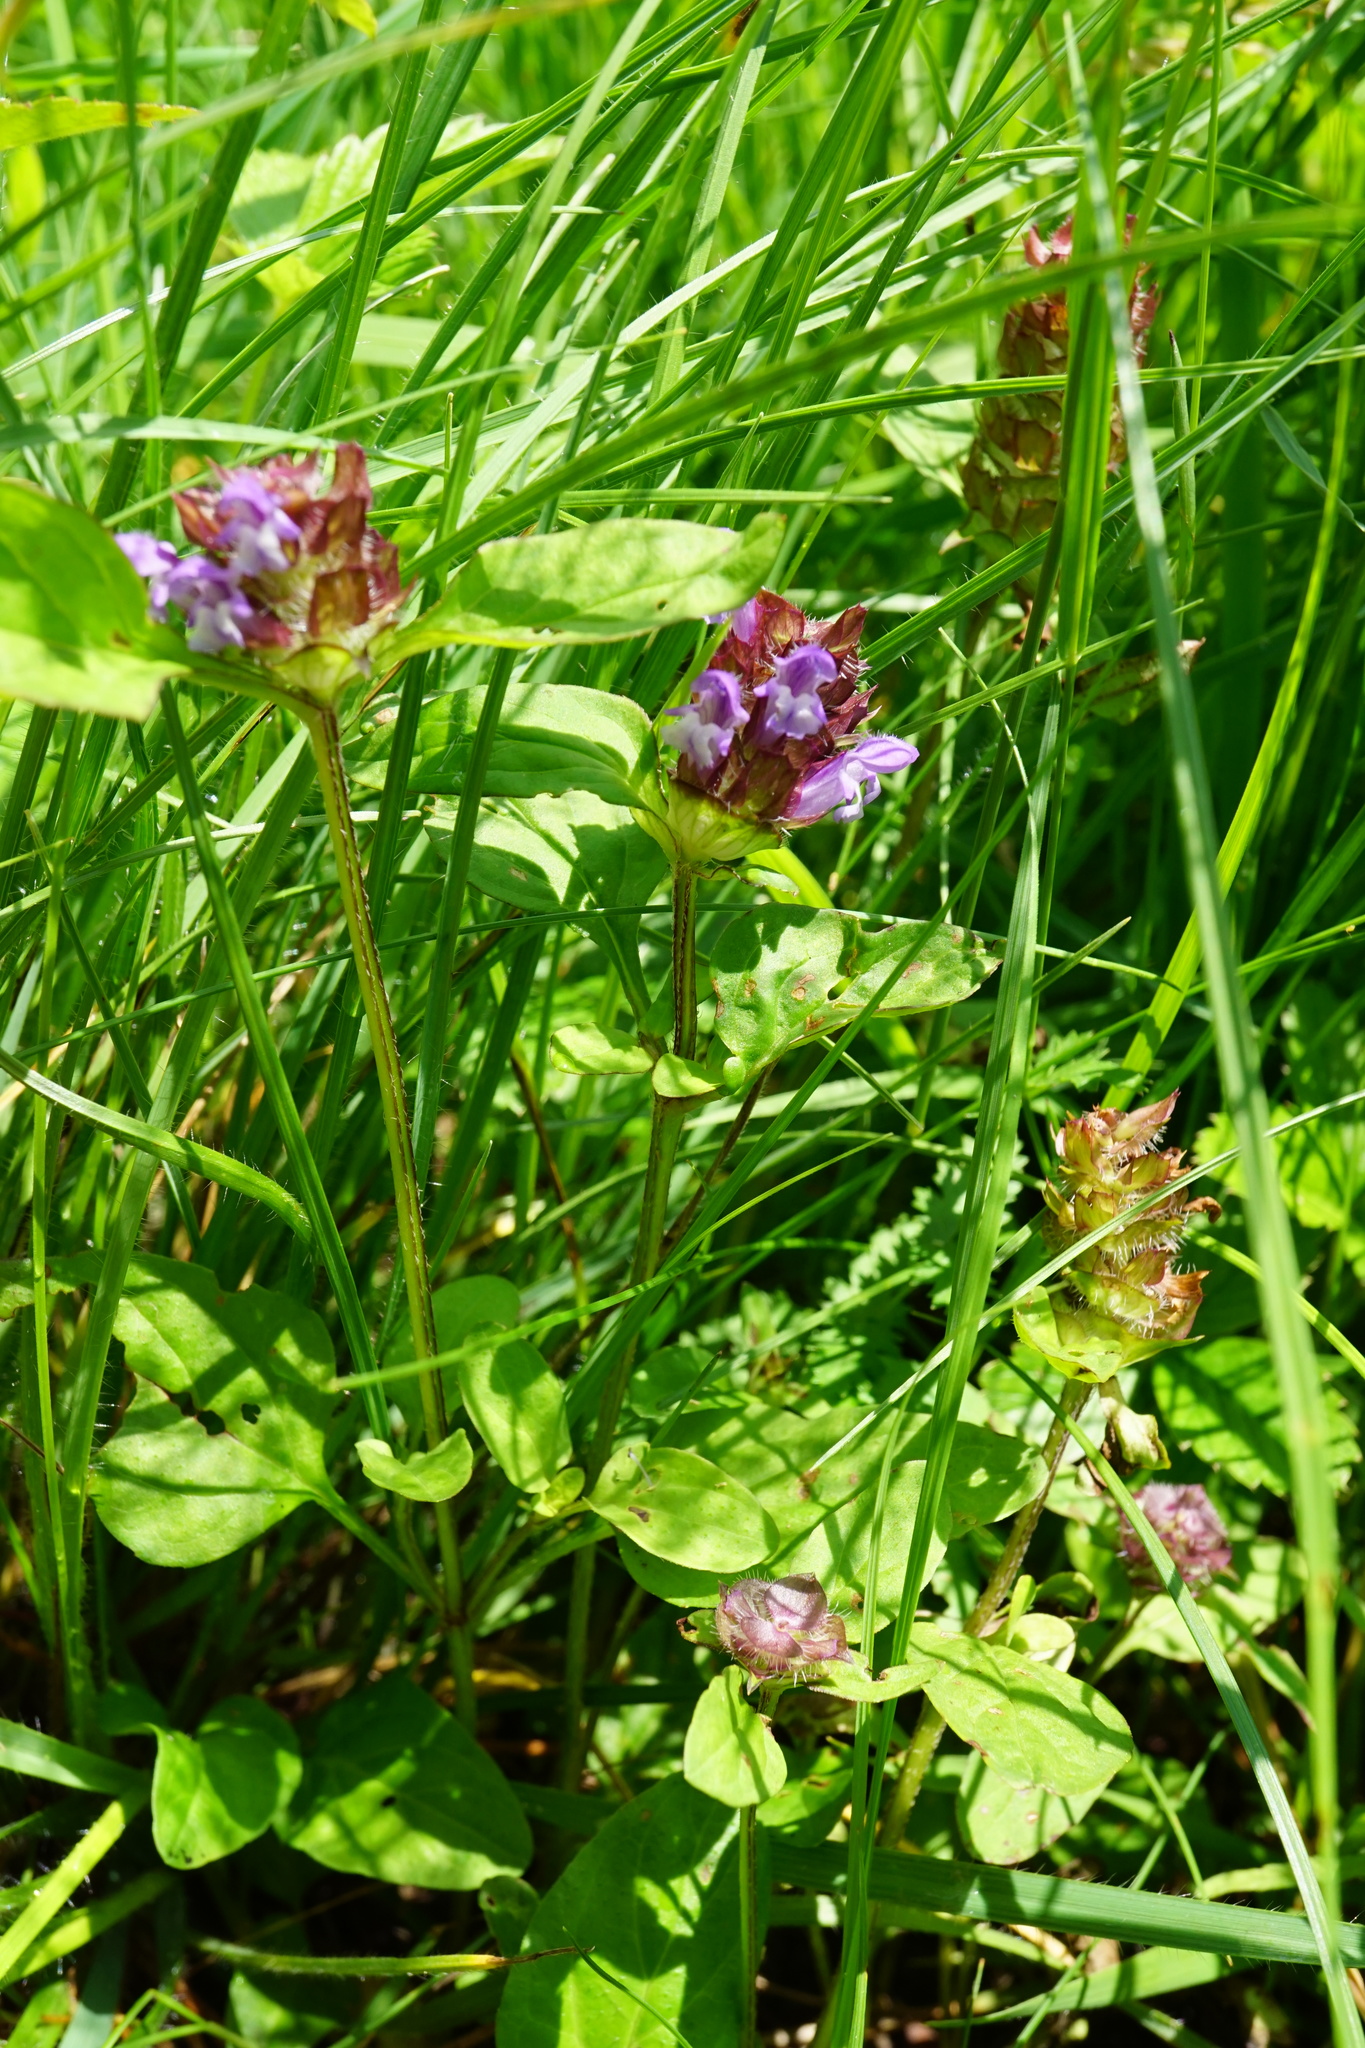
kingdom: Plantae
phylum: Tracheophyta
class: Magnoliopsida
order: Lamiales
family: Lamiaceae
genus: Prunella
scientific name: Prunella vulgaris
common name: Heal-all
